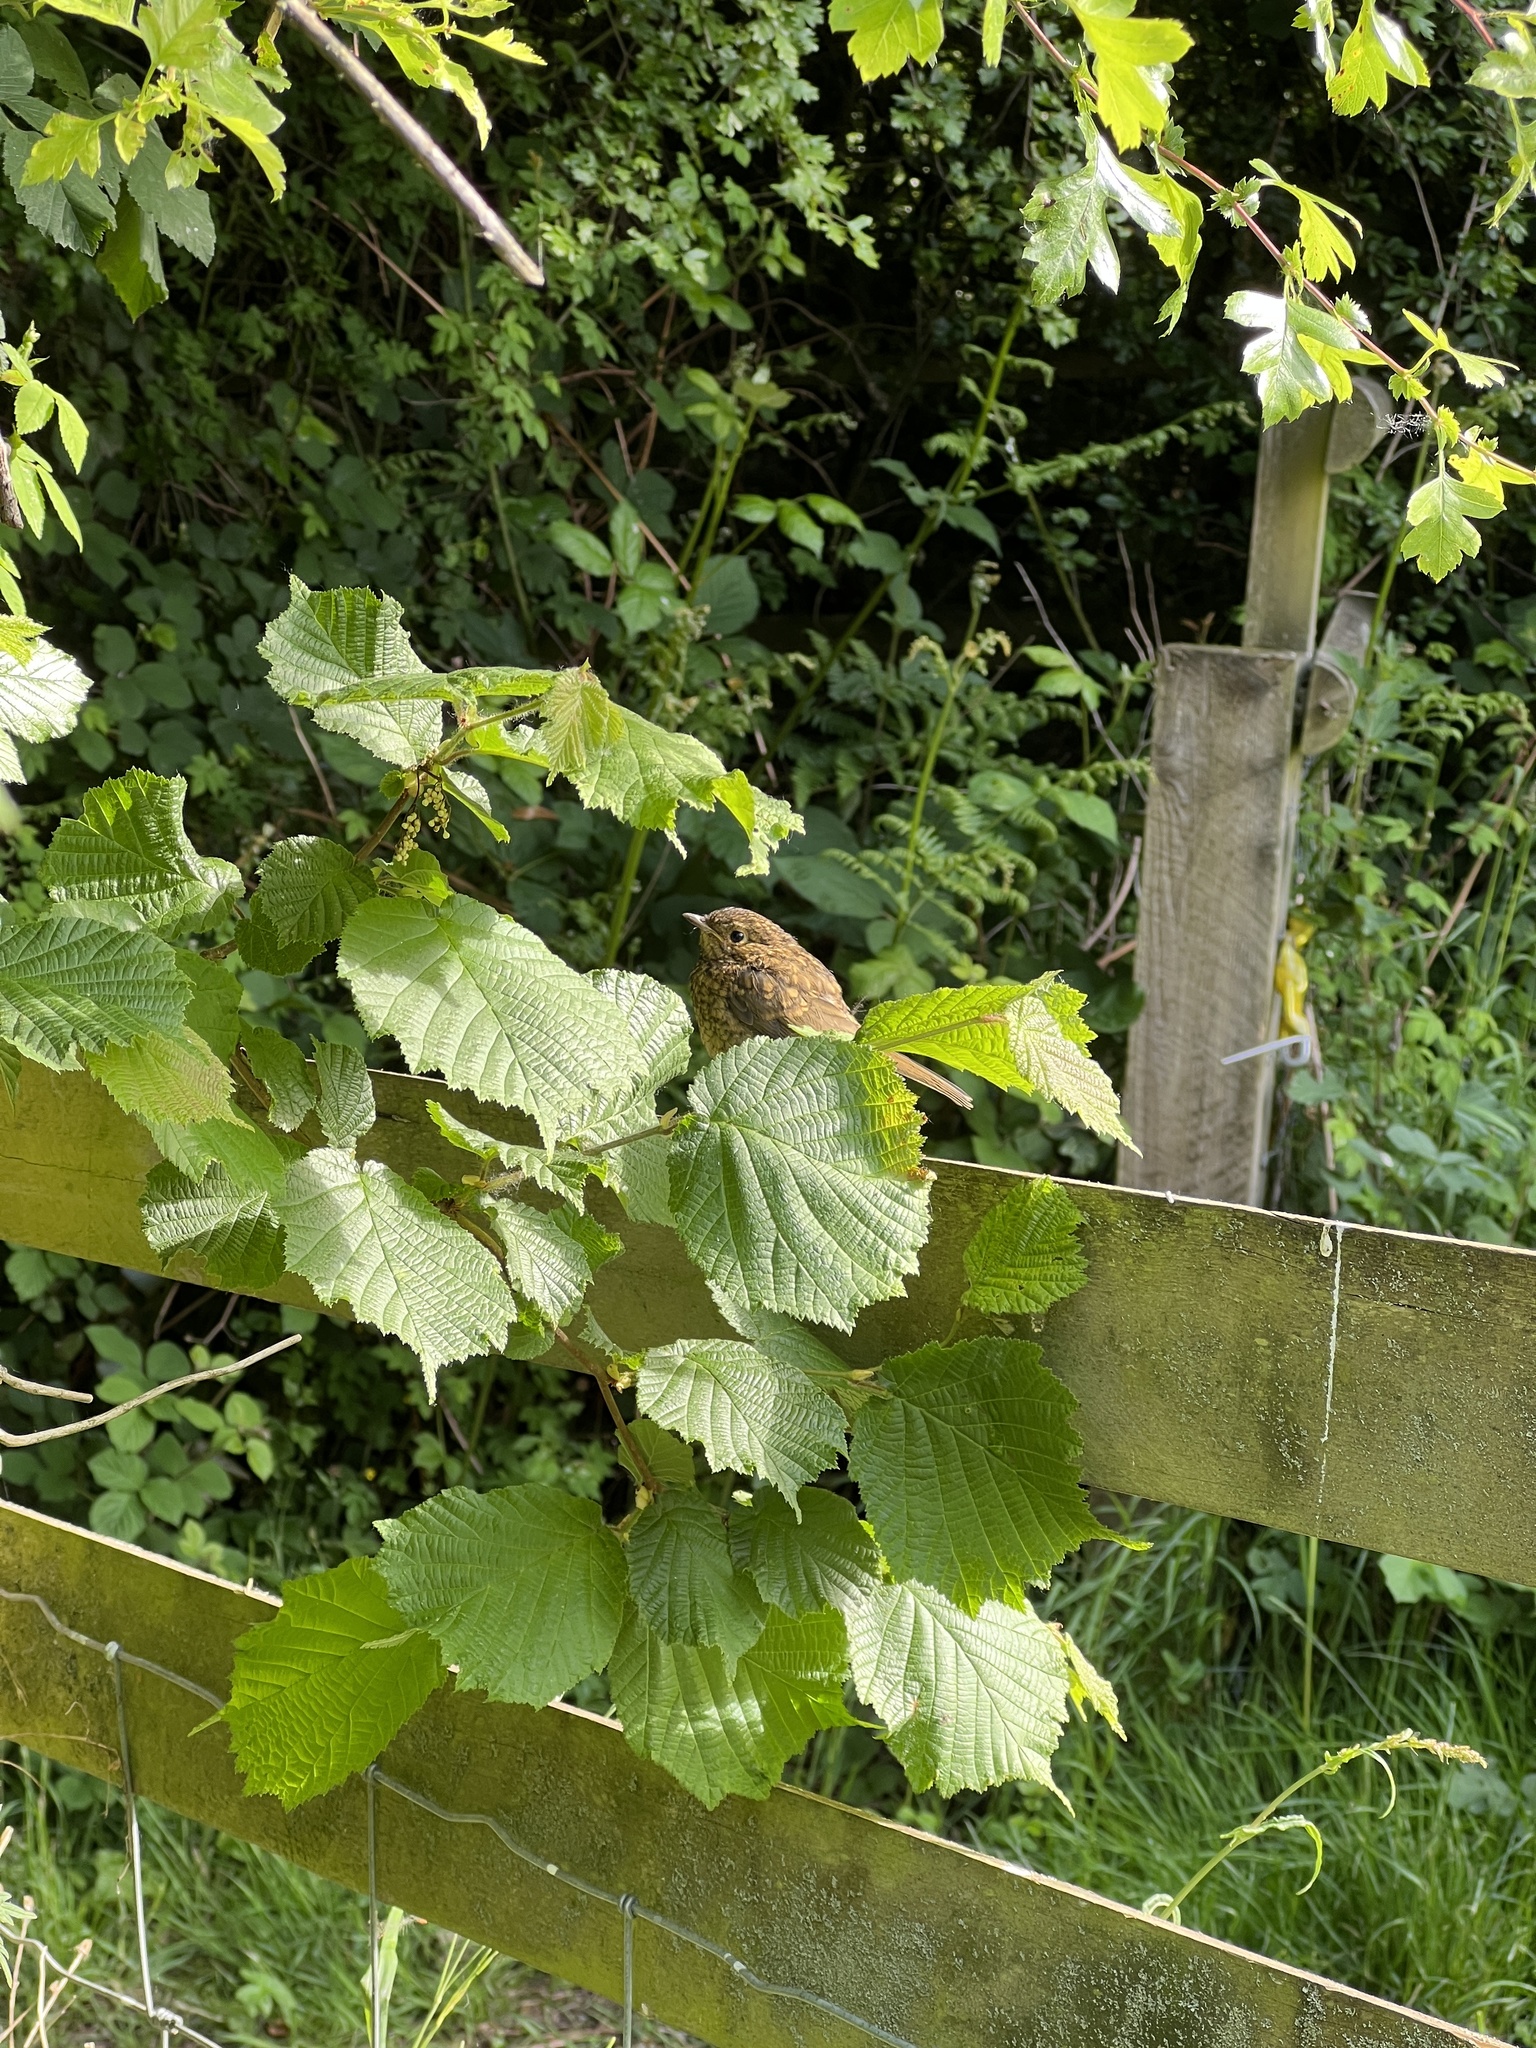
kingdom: Animalia
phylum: Chordata
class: Aves
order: Passeriformes
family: Muscicapidae
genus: Erithacus
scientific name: Erithacus rubecula
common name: European robin
